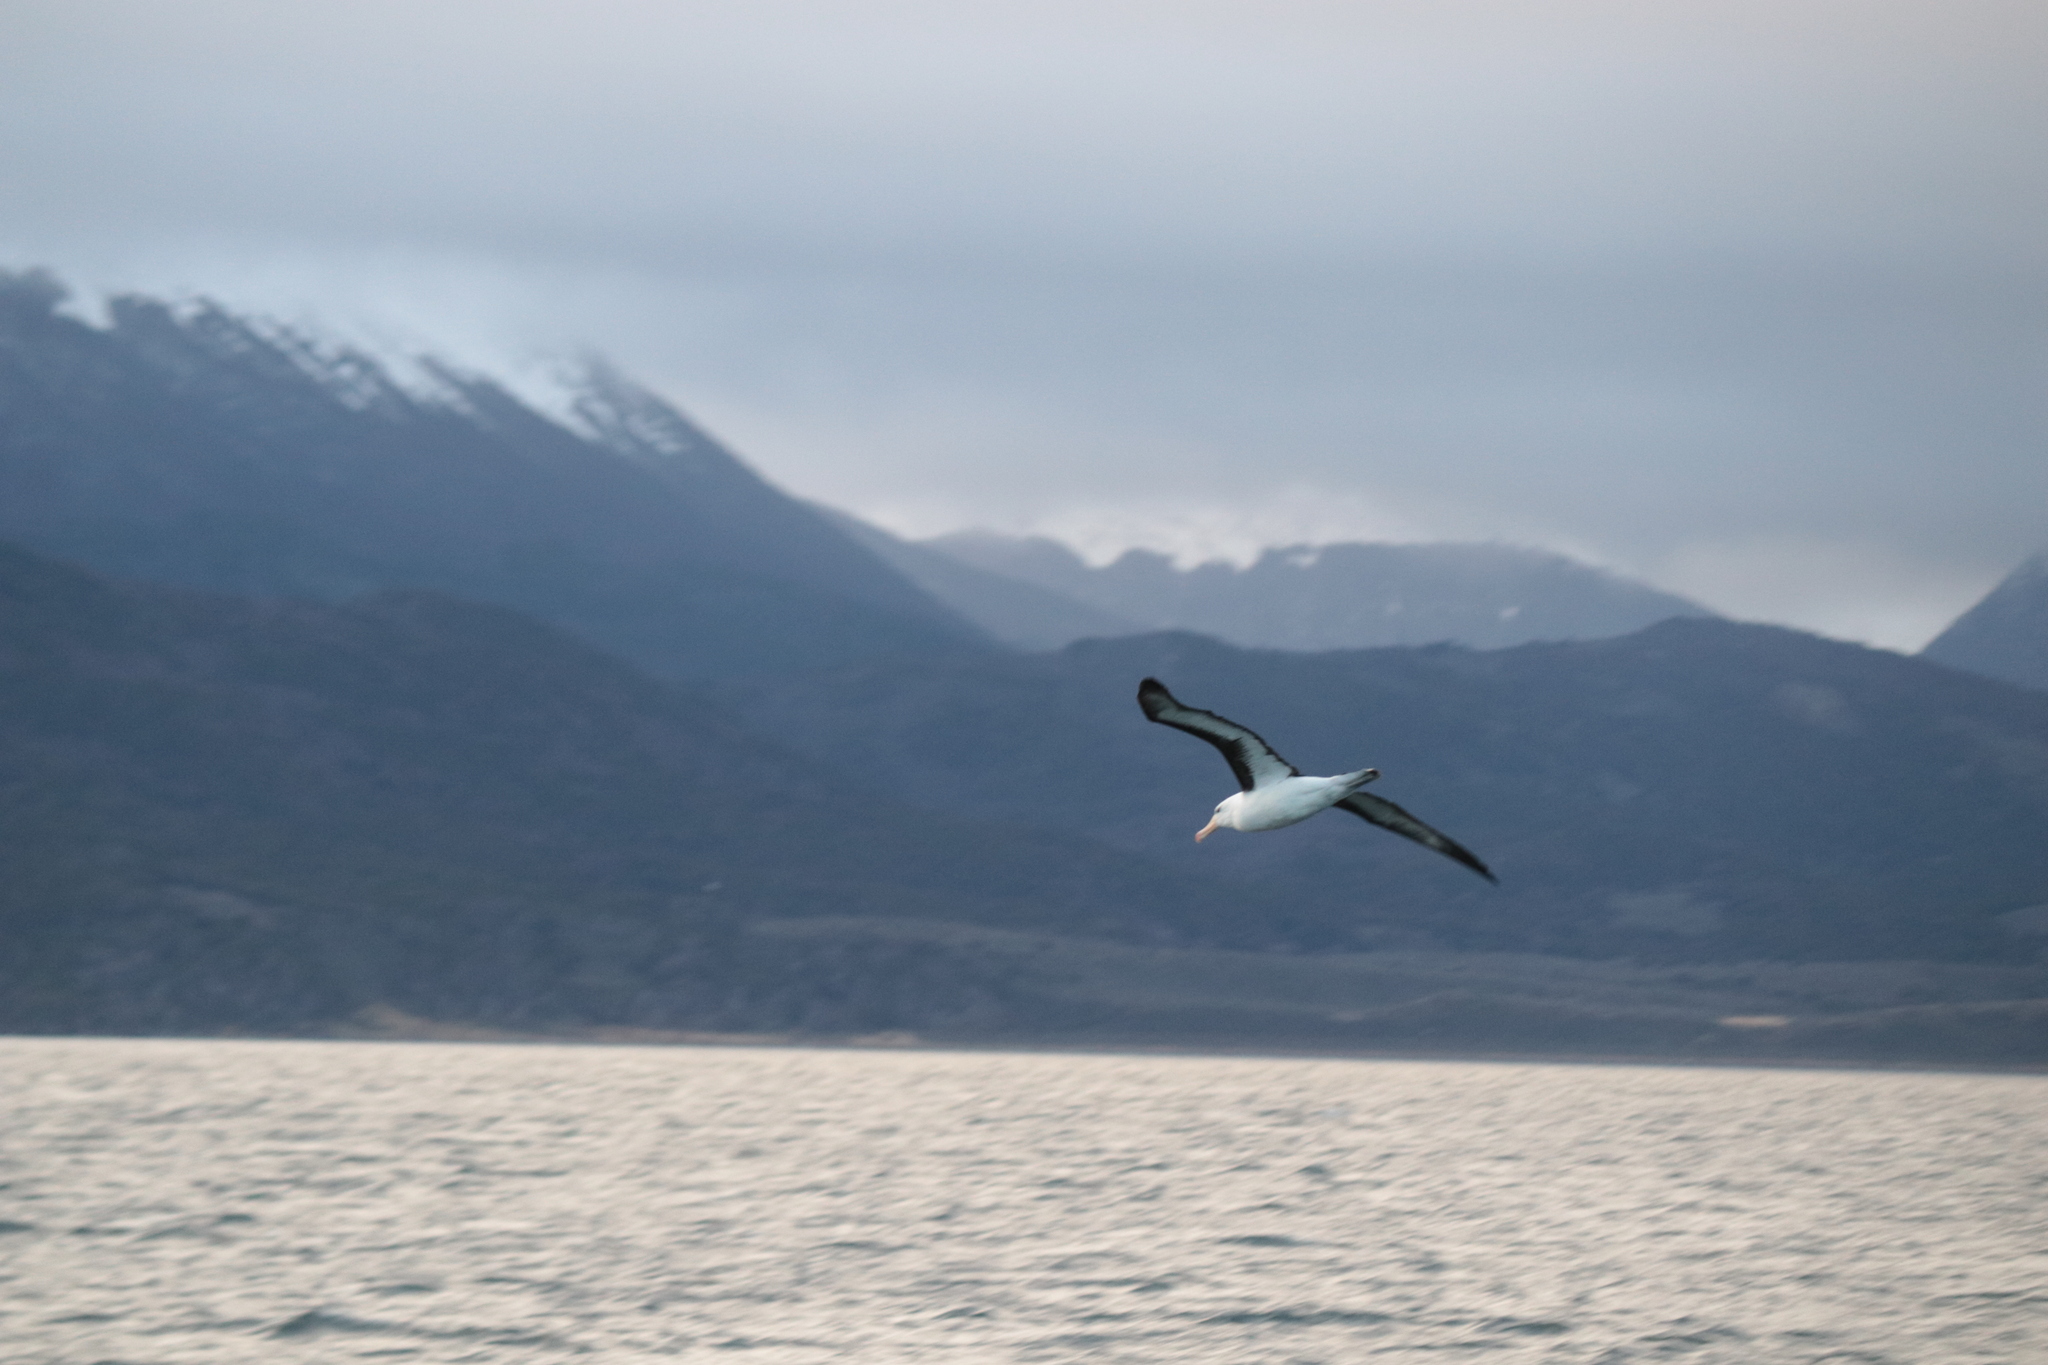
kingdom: Animalia
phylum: Chordata
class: Aves
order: Procellariiformes
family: Diomedeidae
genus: Thalassarche
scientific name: Thalassarche melanophris
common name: Black-browed albatross
